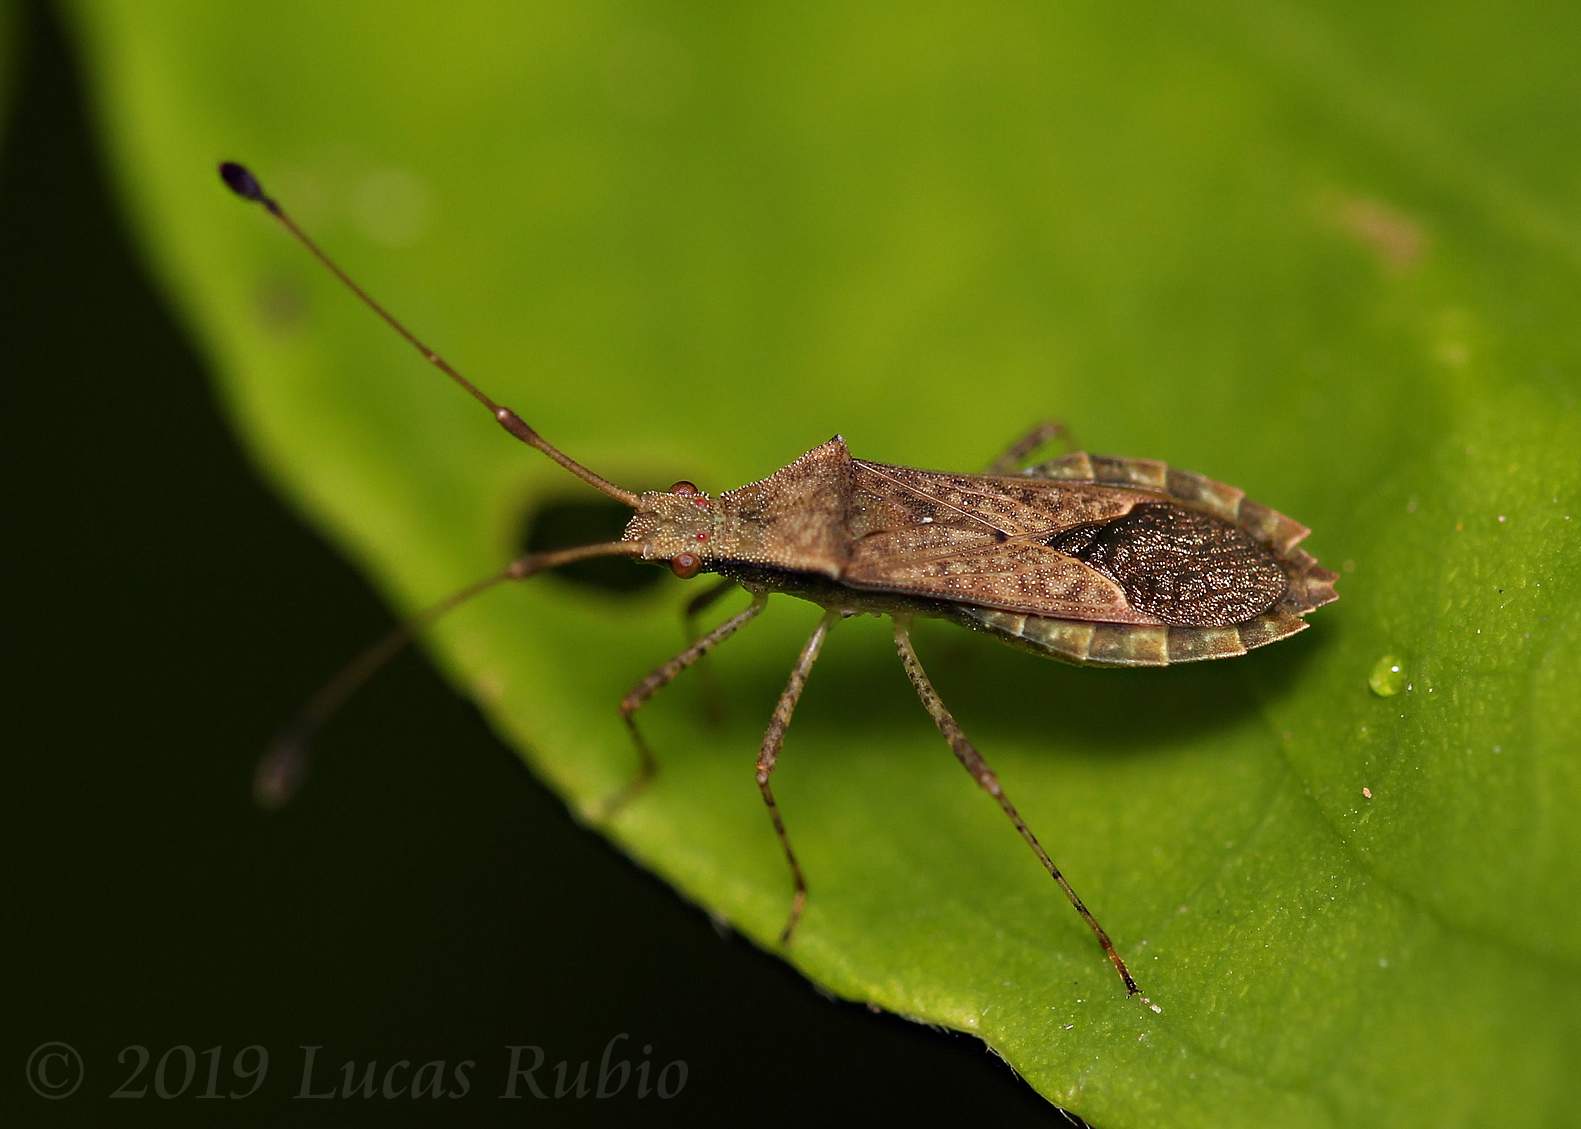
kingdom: Animalia
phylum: Arthropoda
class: Insecta
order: Hemiptera
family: Coreidae
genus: Madura
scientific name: Madura fusco-clavata
